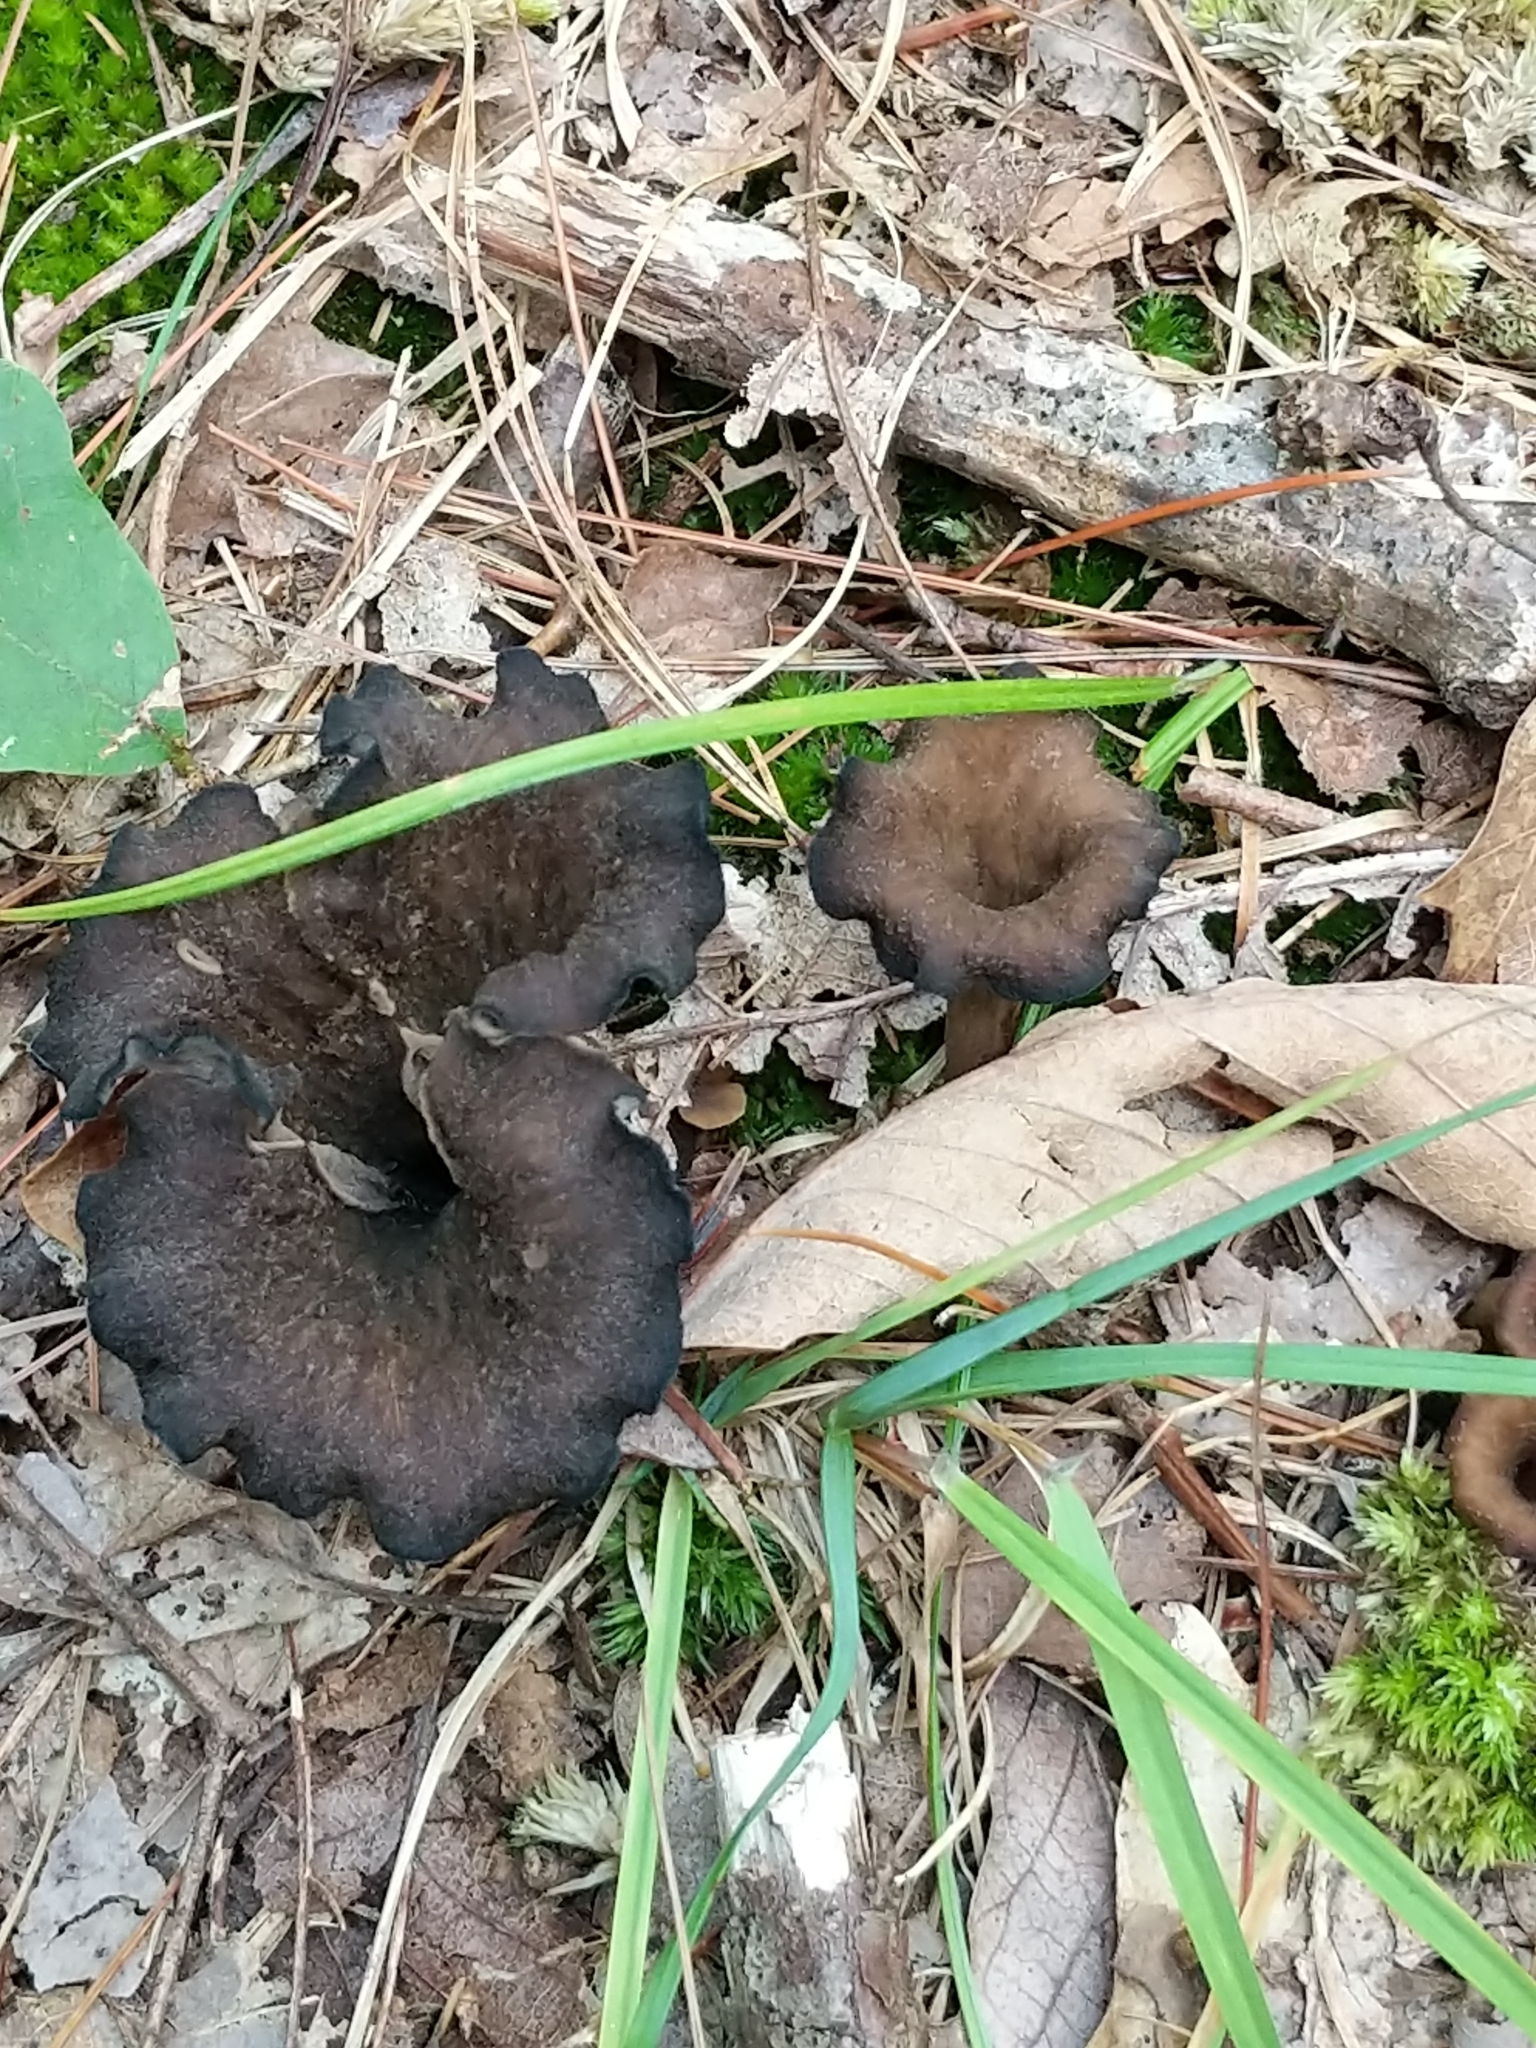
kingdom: Fungi
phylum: Basidiomycota
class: Agaricomycetes
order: Cantharellales
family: Hydnaceae
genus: Craterellus
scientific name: Craterellus cornucopioides
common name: Horn of plenty
